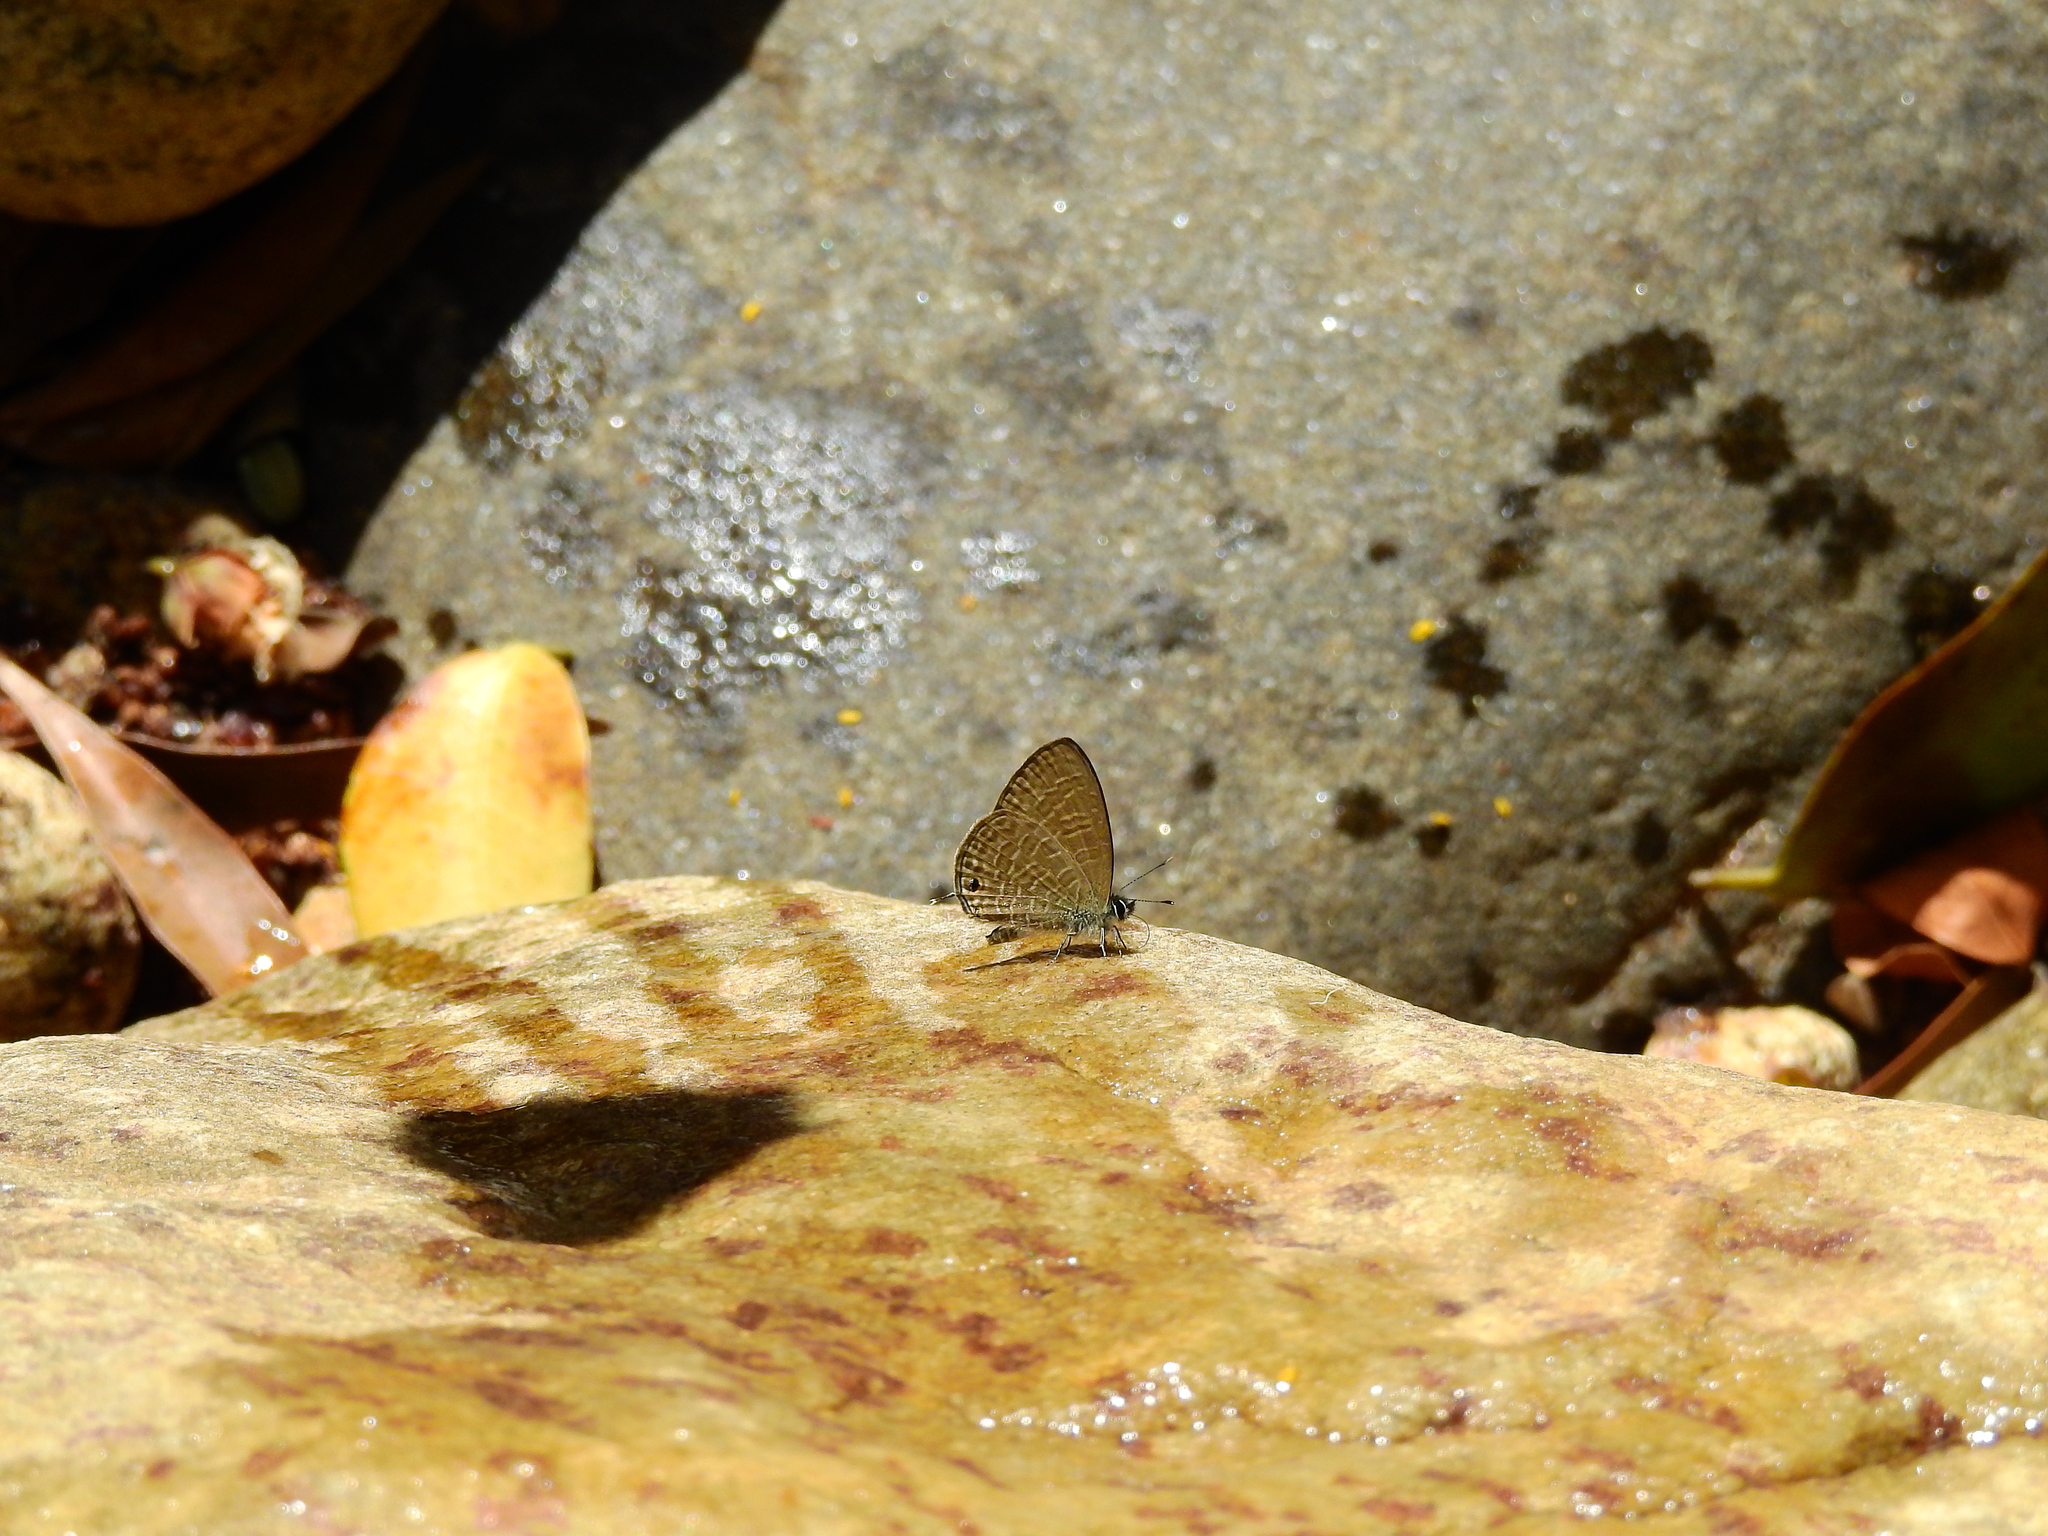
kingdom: Animalia
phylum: Arthropoda
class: Insecta
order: Lepidoptera
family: Lycaenidae
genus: Prosotas
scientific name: Prosotas nora
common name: Common line blue
